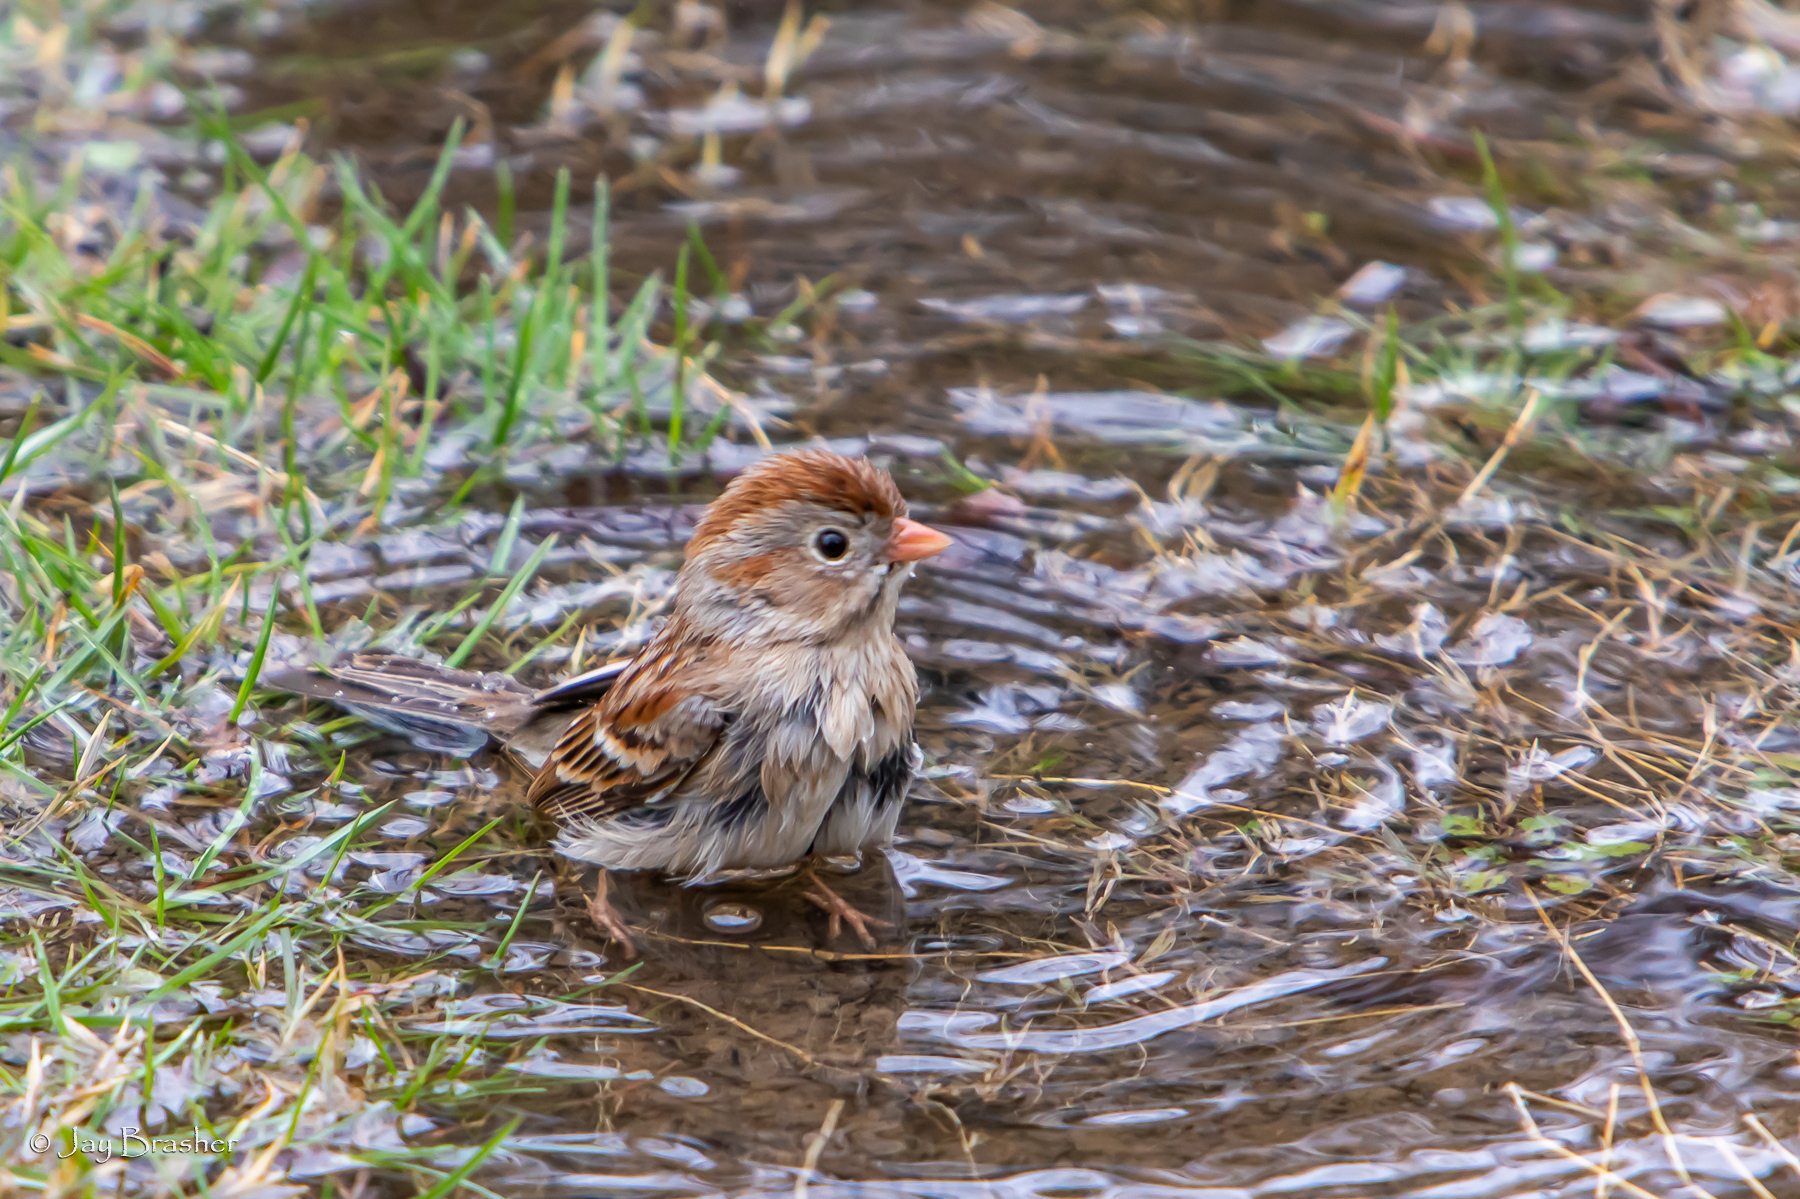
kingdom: Animalia
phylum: Chordata
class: Aves
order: Passeriformes
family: Passerellidae
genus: Spizella
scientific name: Spizella pusilla
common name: Field sparrow
